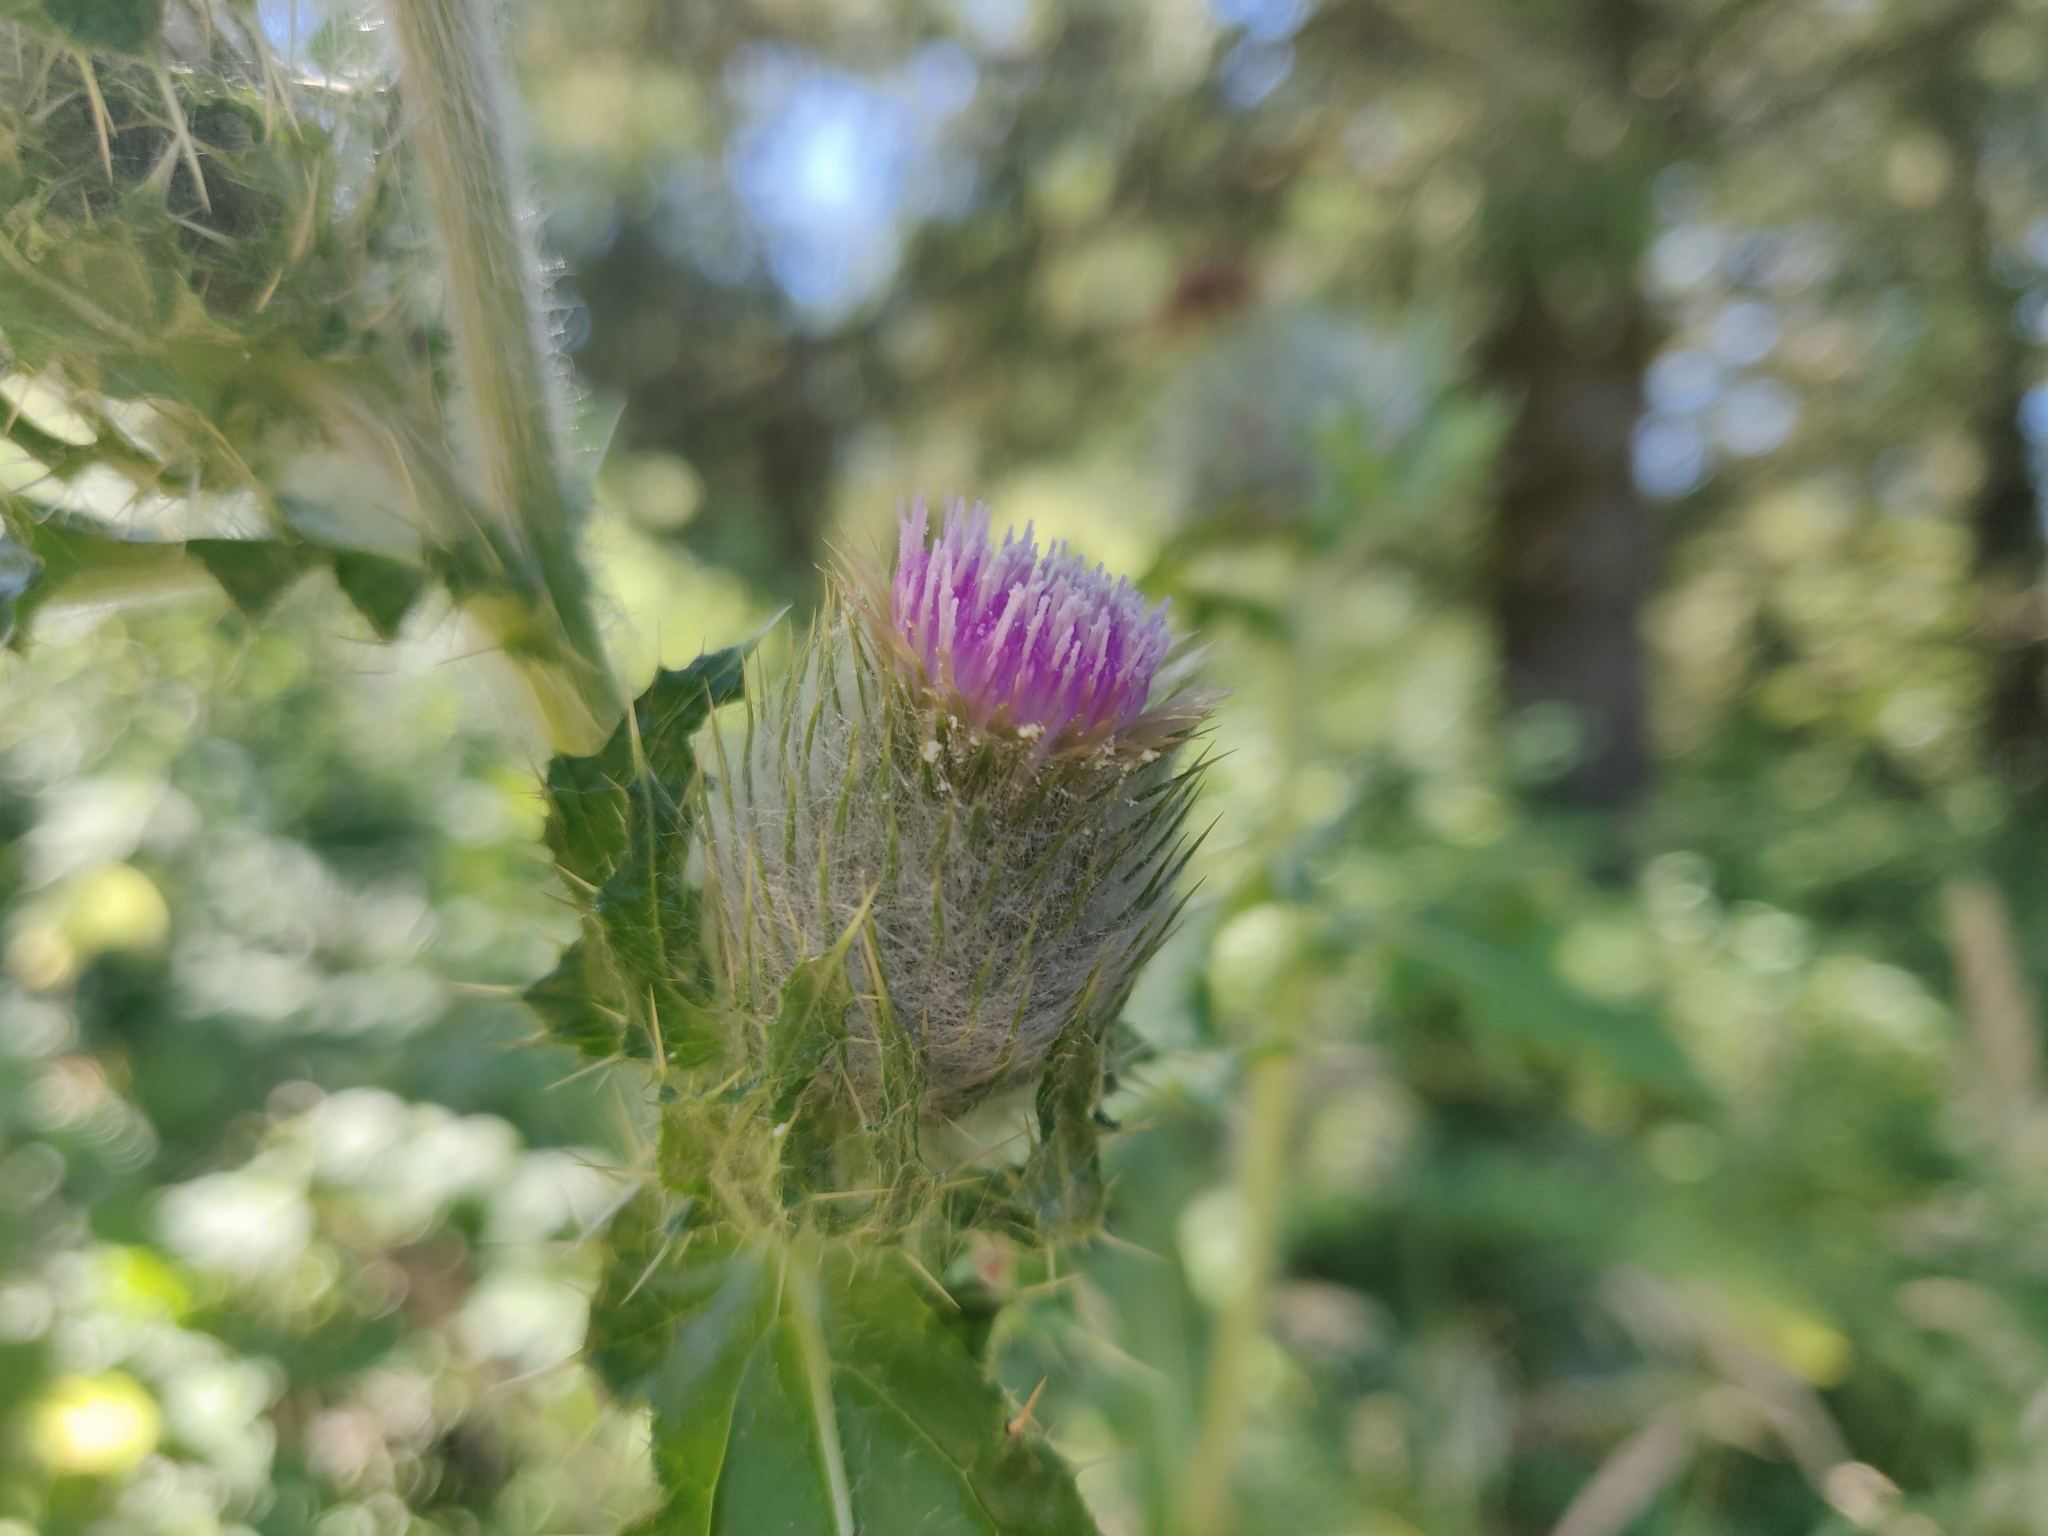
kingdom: Plantae
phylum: Tracheophyta
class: Magnoliopsida
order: Asterales
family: Asteraceae
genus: Cirsium
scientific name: Cirsium brevistylum
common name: Indian thistle
